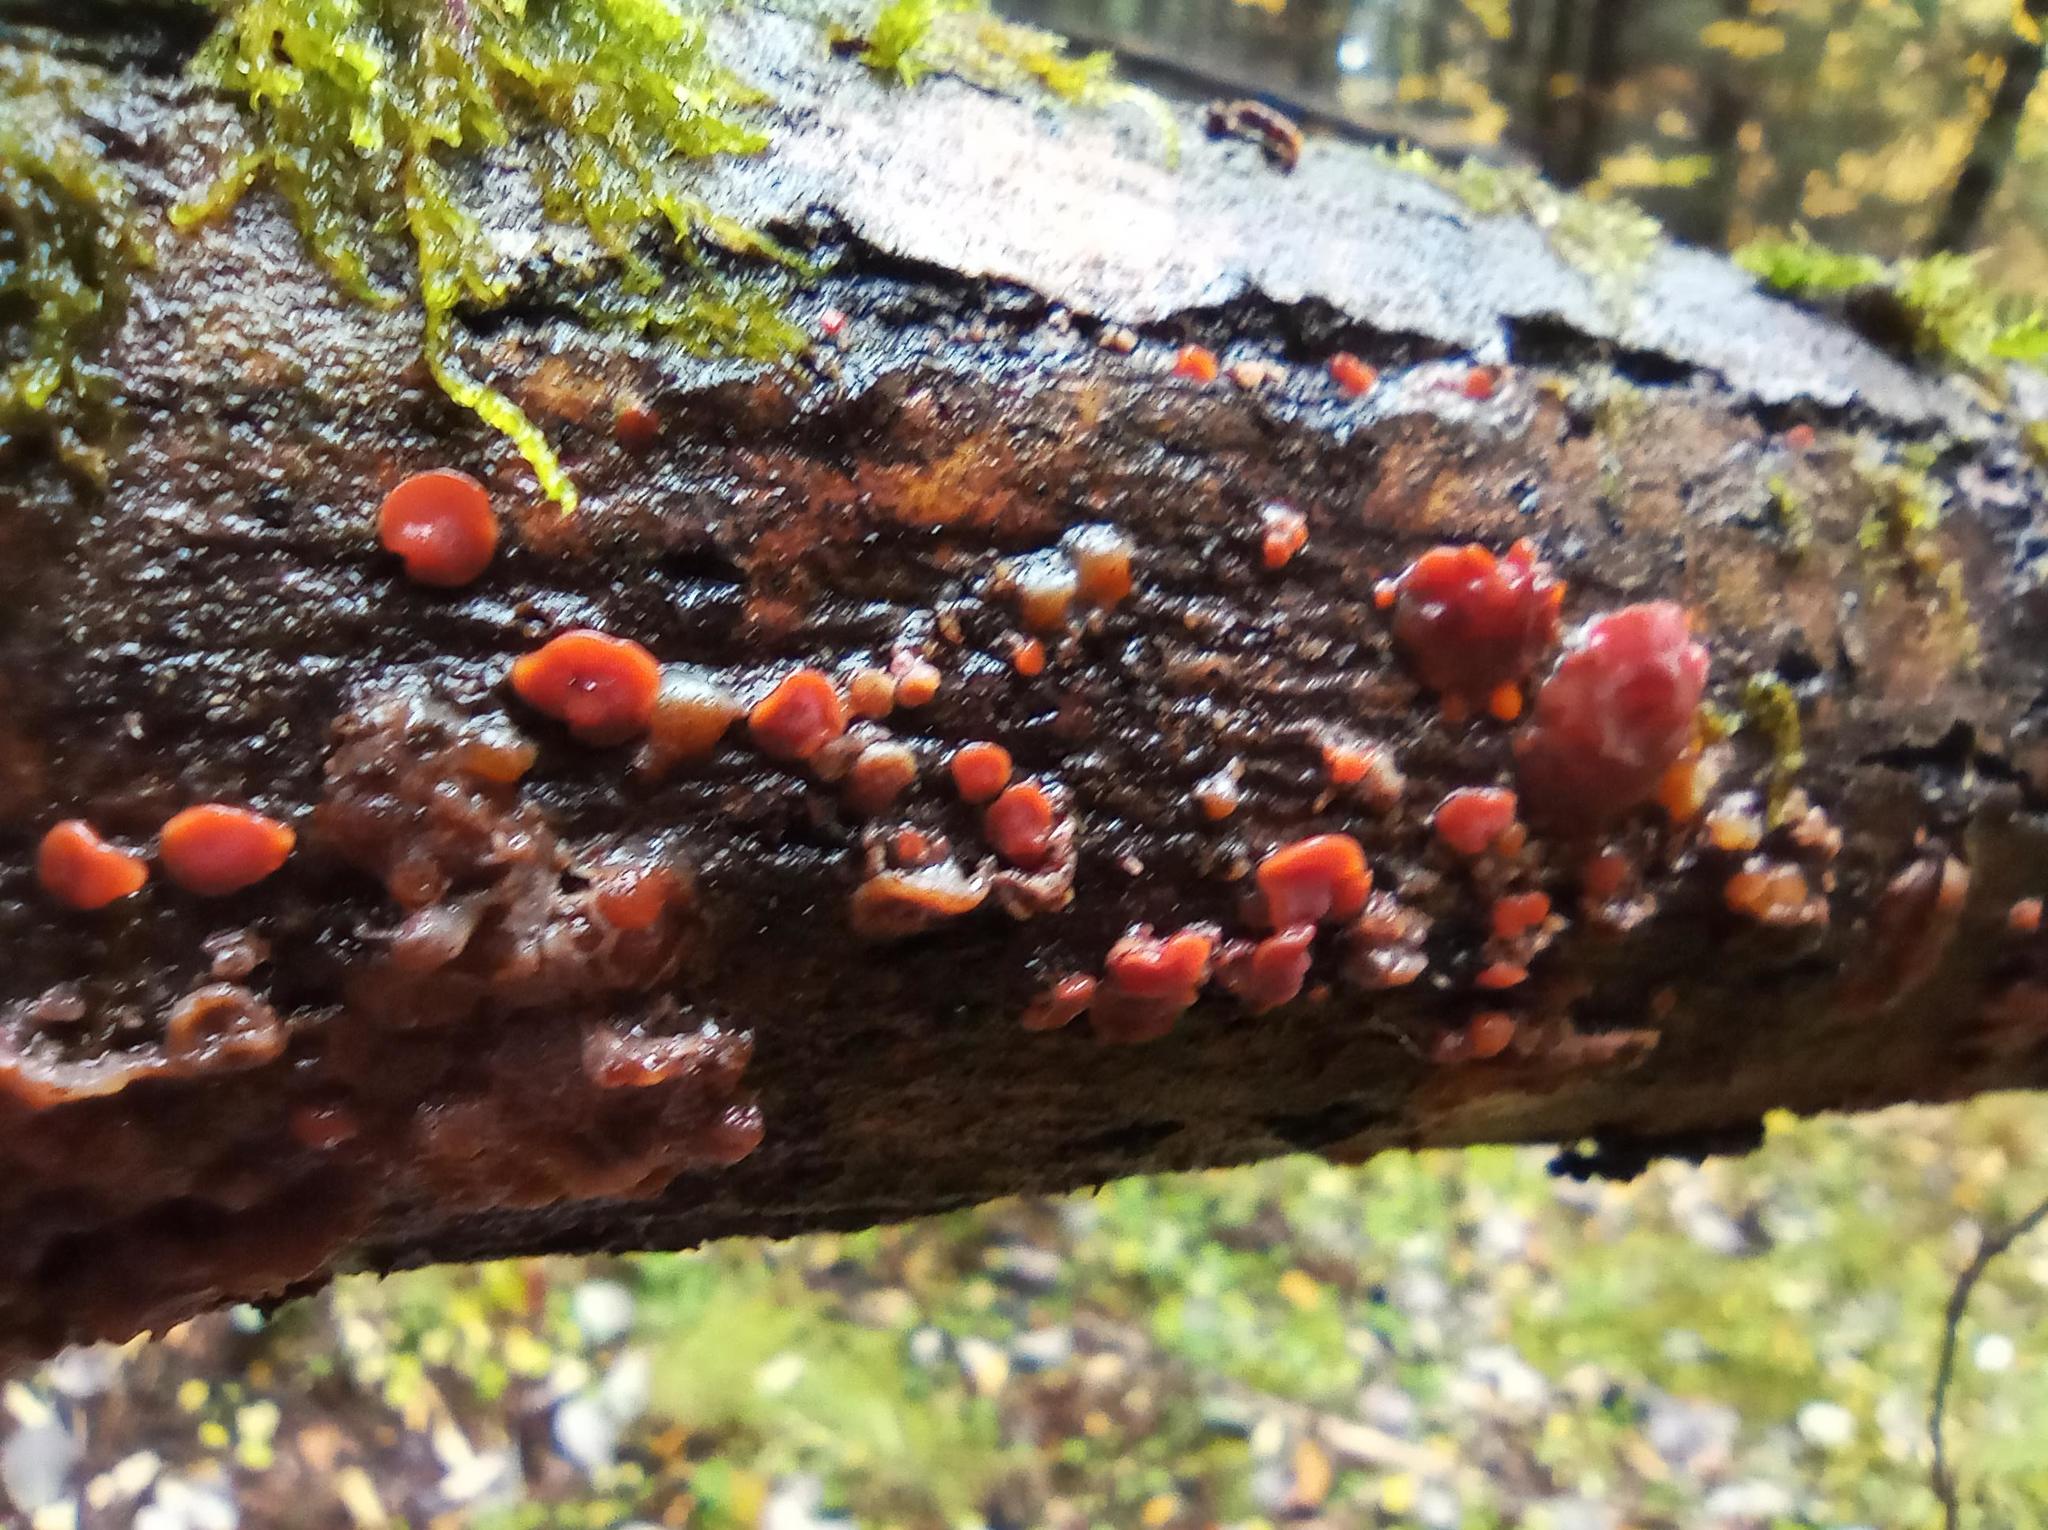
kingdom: Fungi
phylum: Basidiomycota
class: Agaricomycetes
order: Corticiales
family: Vuilleminiaceae
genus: Cytidia
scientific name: Cytidia salicina
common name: Scarlet splash
